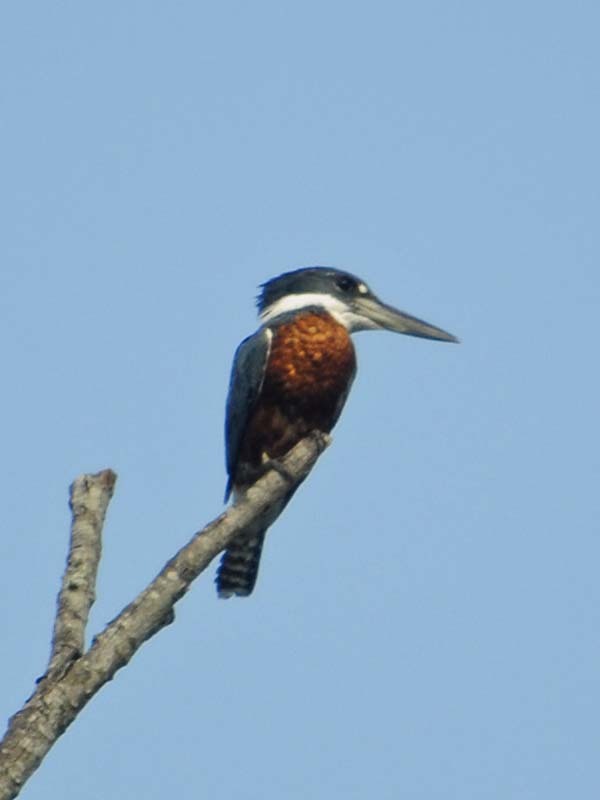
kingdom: Animalia
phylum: Chordata
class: Aves
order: Coraciiformes
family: Alcedinidae
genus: Megaceryle
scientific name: Megaceryle torquata
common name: Ringed kingfisher
